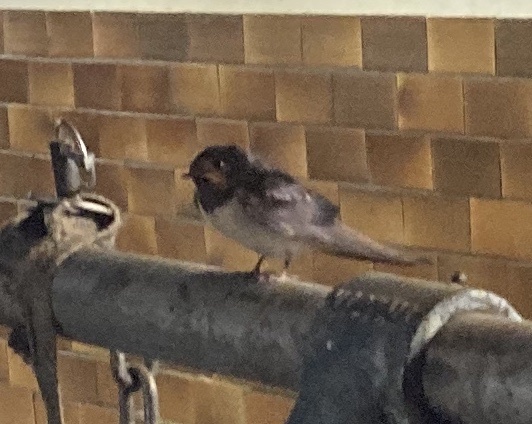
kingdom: Animalia
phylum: Chordata
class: Aves
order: Passeriformes
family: Hirundinidae
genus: Hirundo
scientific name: Hirundo rustica
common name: Barn swallow
